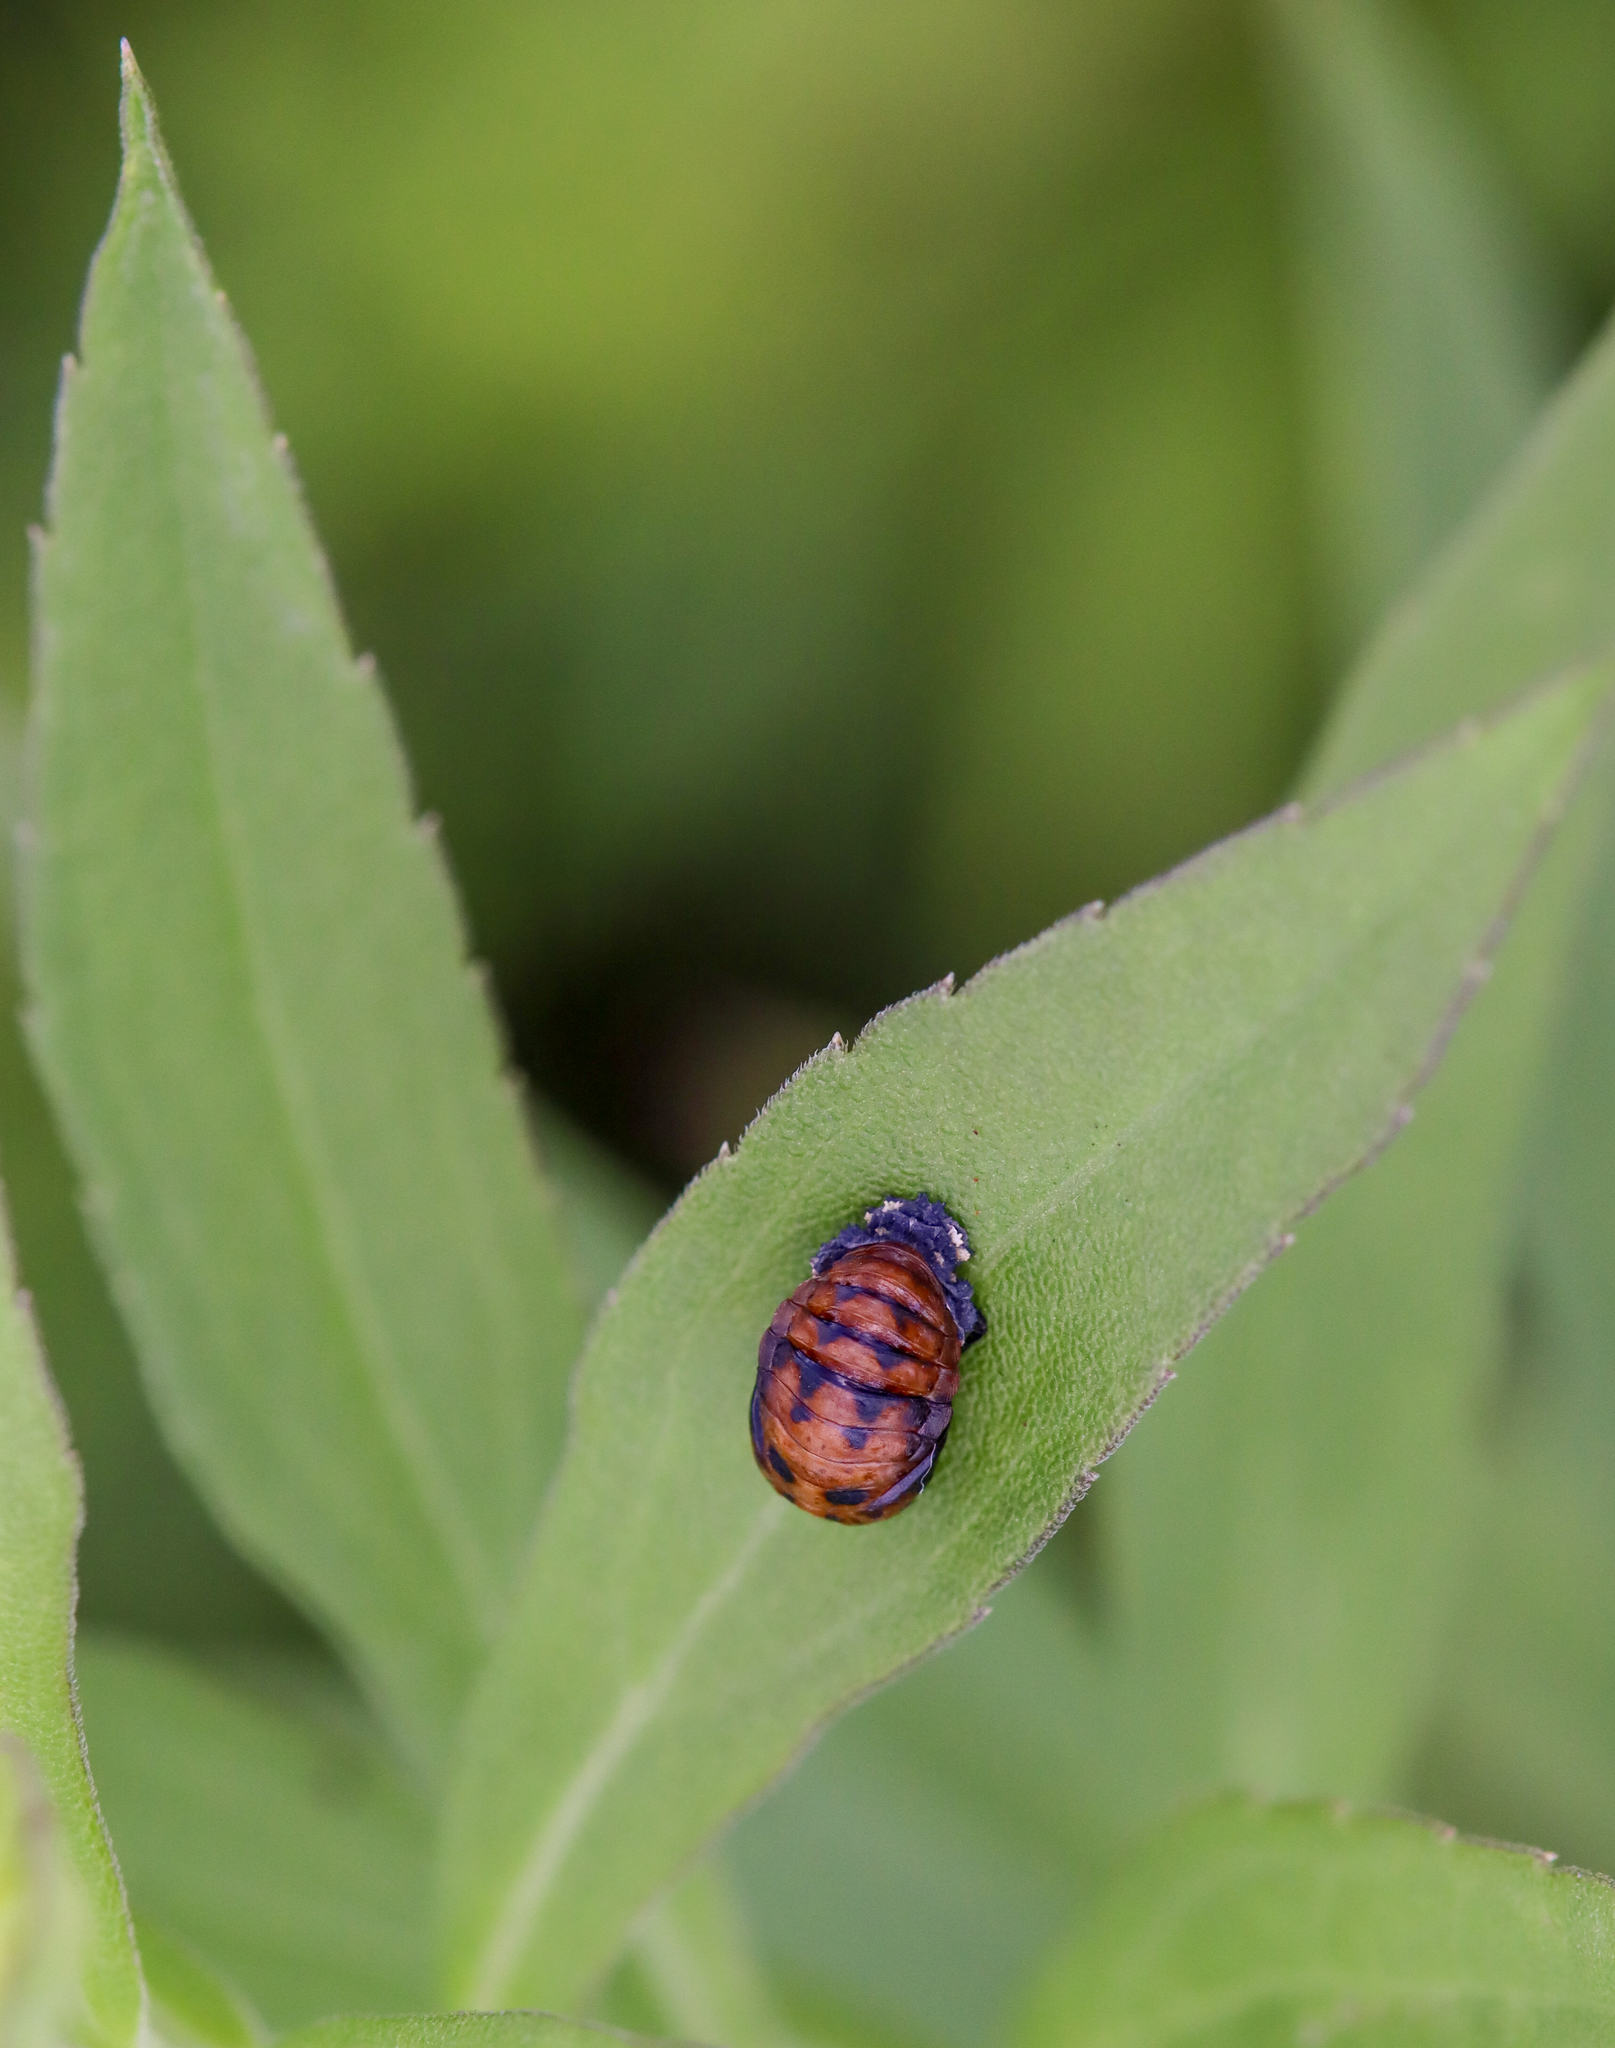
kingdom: Animalia
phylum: Arthropoda
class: Insecta
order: Coleoptera
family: Coccinellidae
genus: Harmonia
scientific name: Harmonia axyridis
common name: Harlequin ladybird
